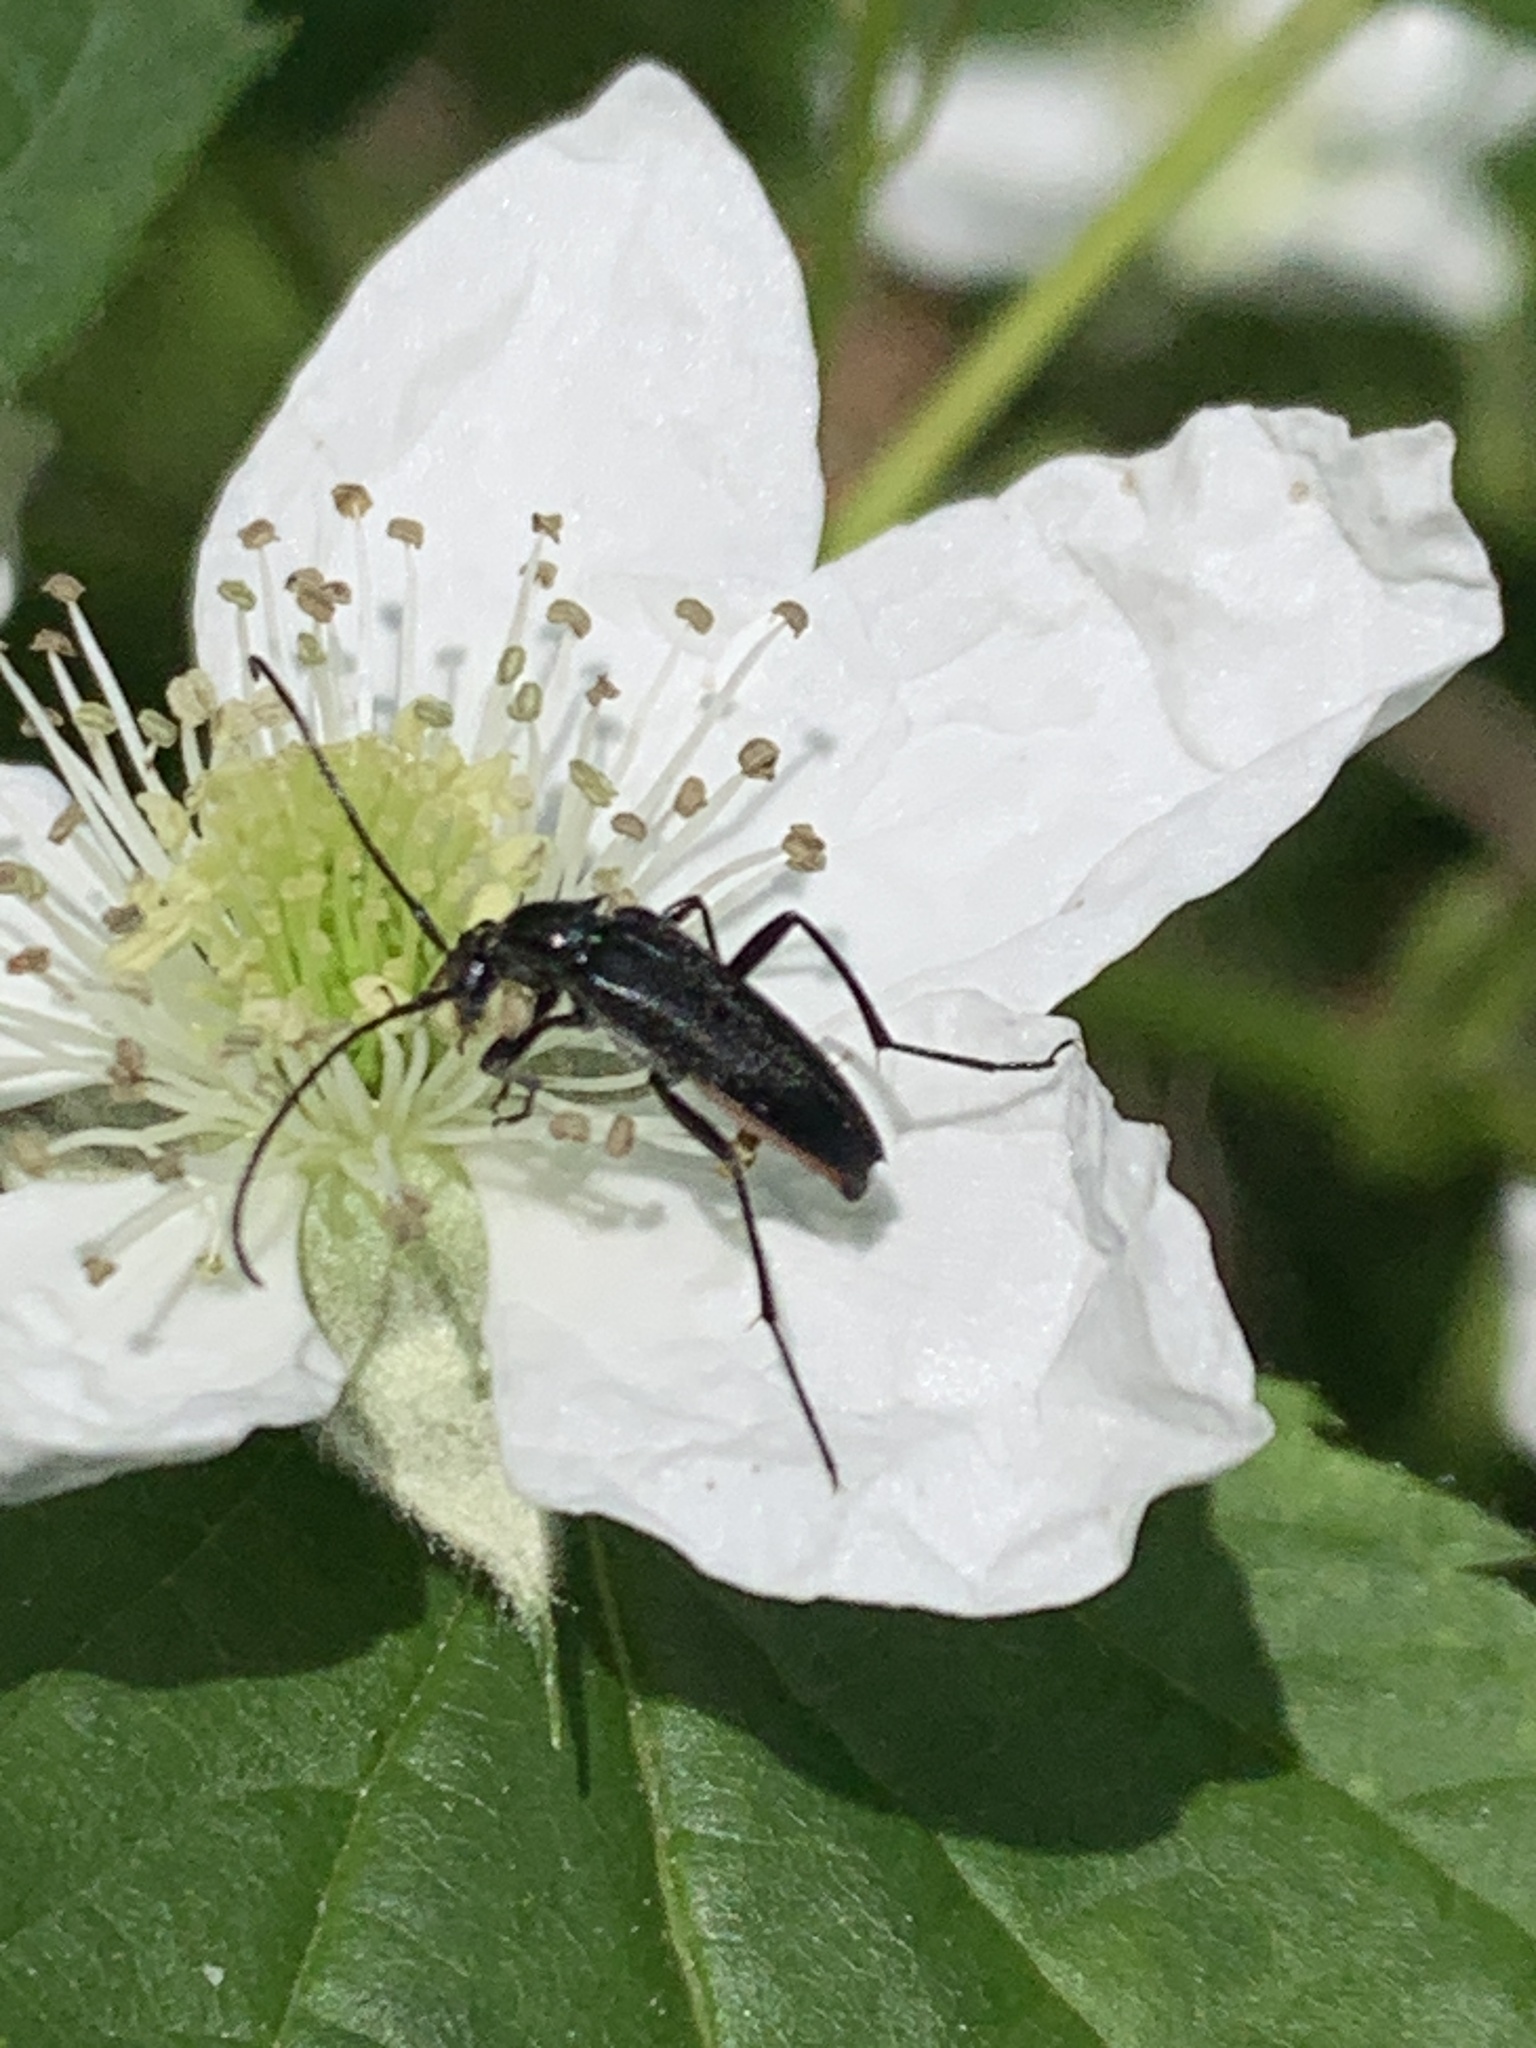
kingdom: Animalia
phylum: Arthropoda
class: Insecta
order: Coleoptera
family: Cerambycidae
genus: Stenurella
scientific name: Stenurella nigra
